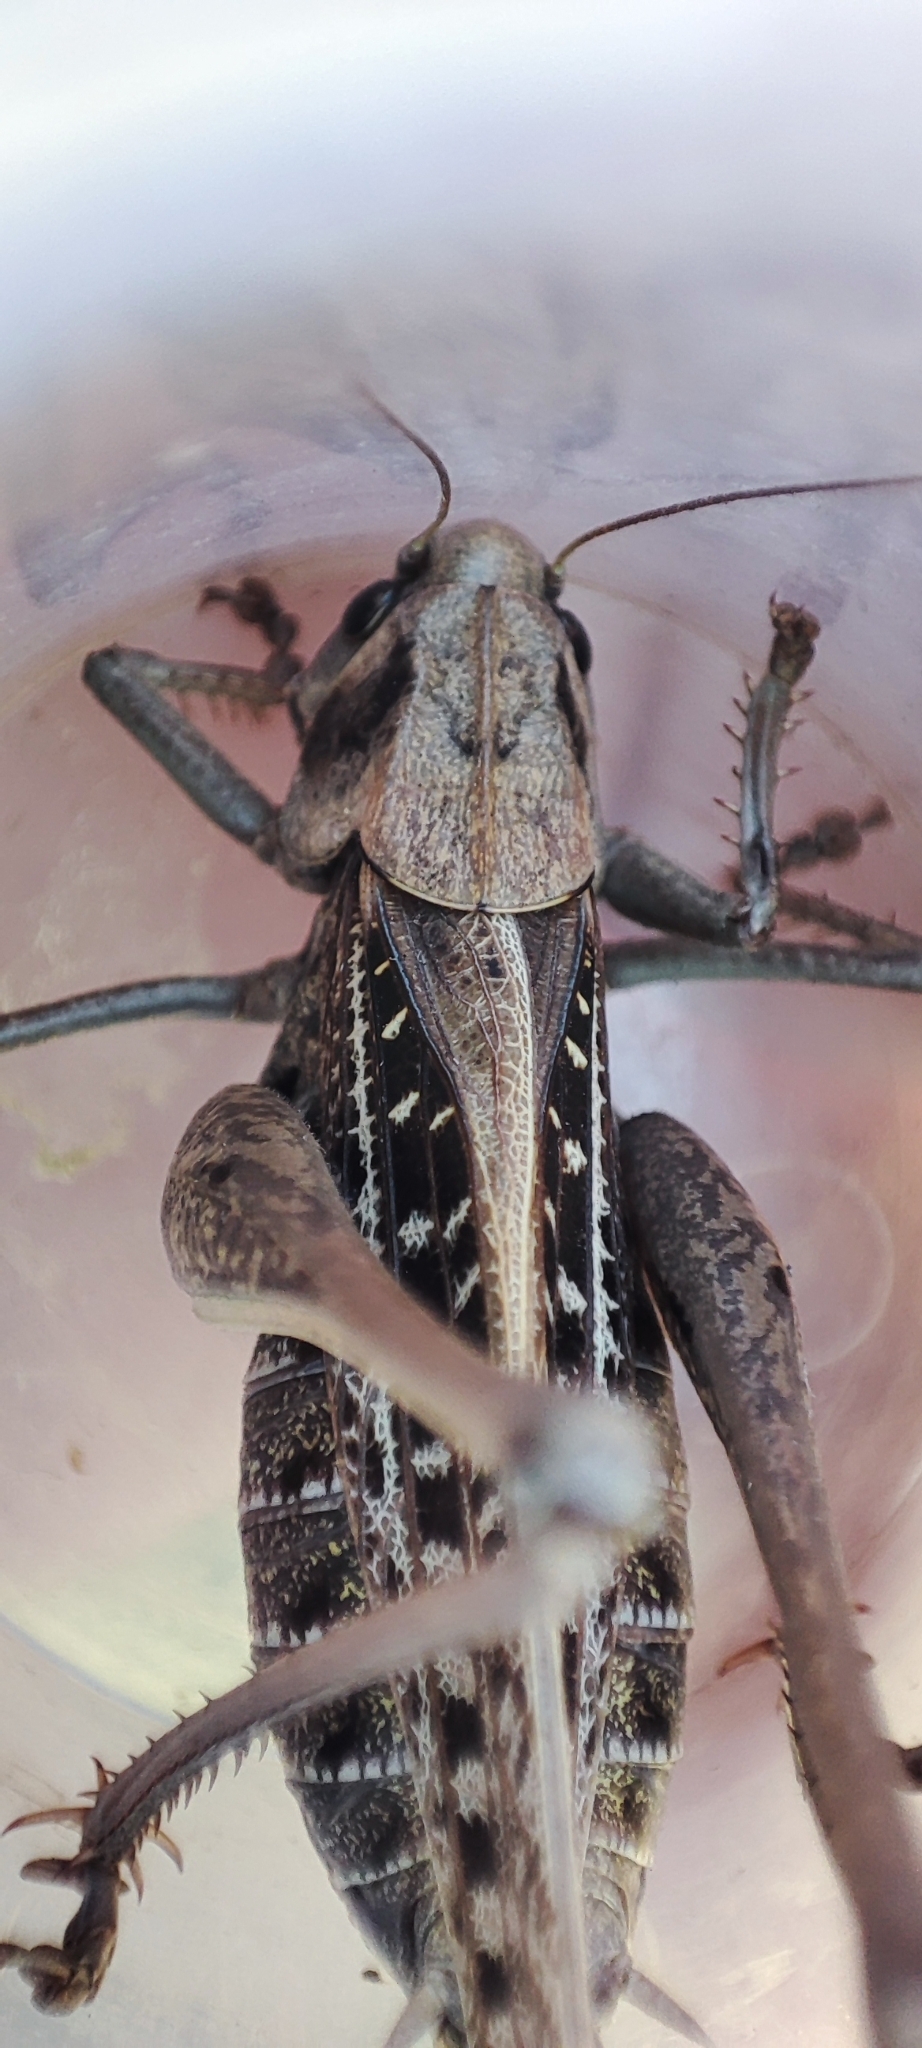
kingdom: Animalia
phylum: Arthropoda
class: Insecta
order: Orthoptera
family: Tettigoniidae
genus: Decticus
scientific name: Decticus verrucivorus
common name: Wart-biter
